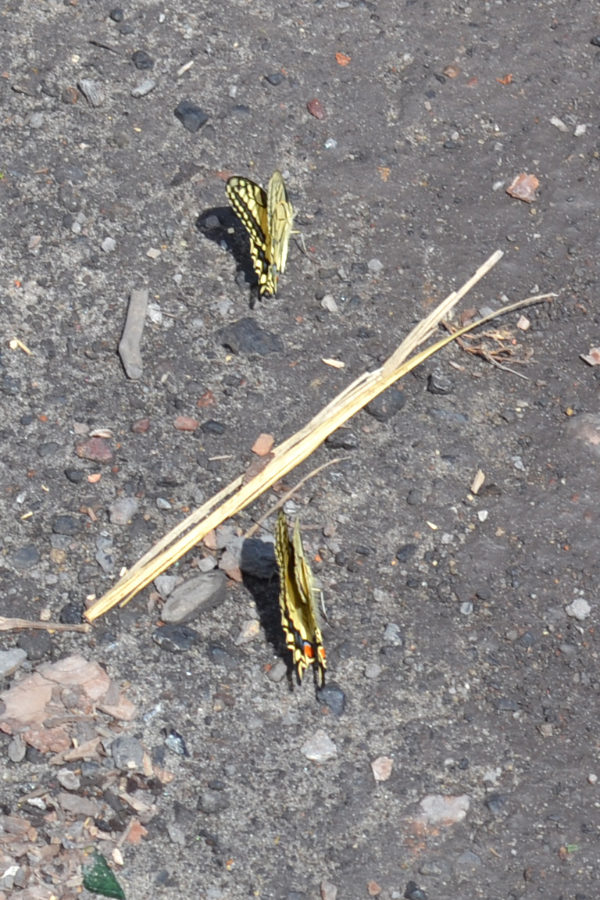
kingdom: Animalia
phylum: Arthropoda
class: Insecta
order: Lepidoptera
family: Papilionidae
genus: Papilio
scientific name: Papilio machaon
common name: Swallowtail
